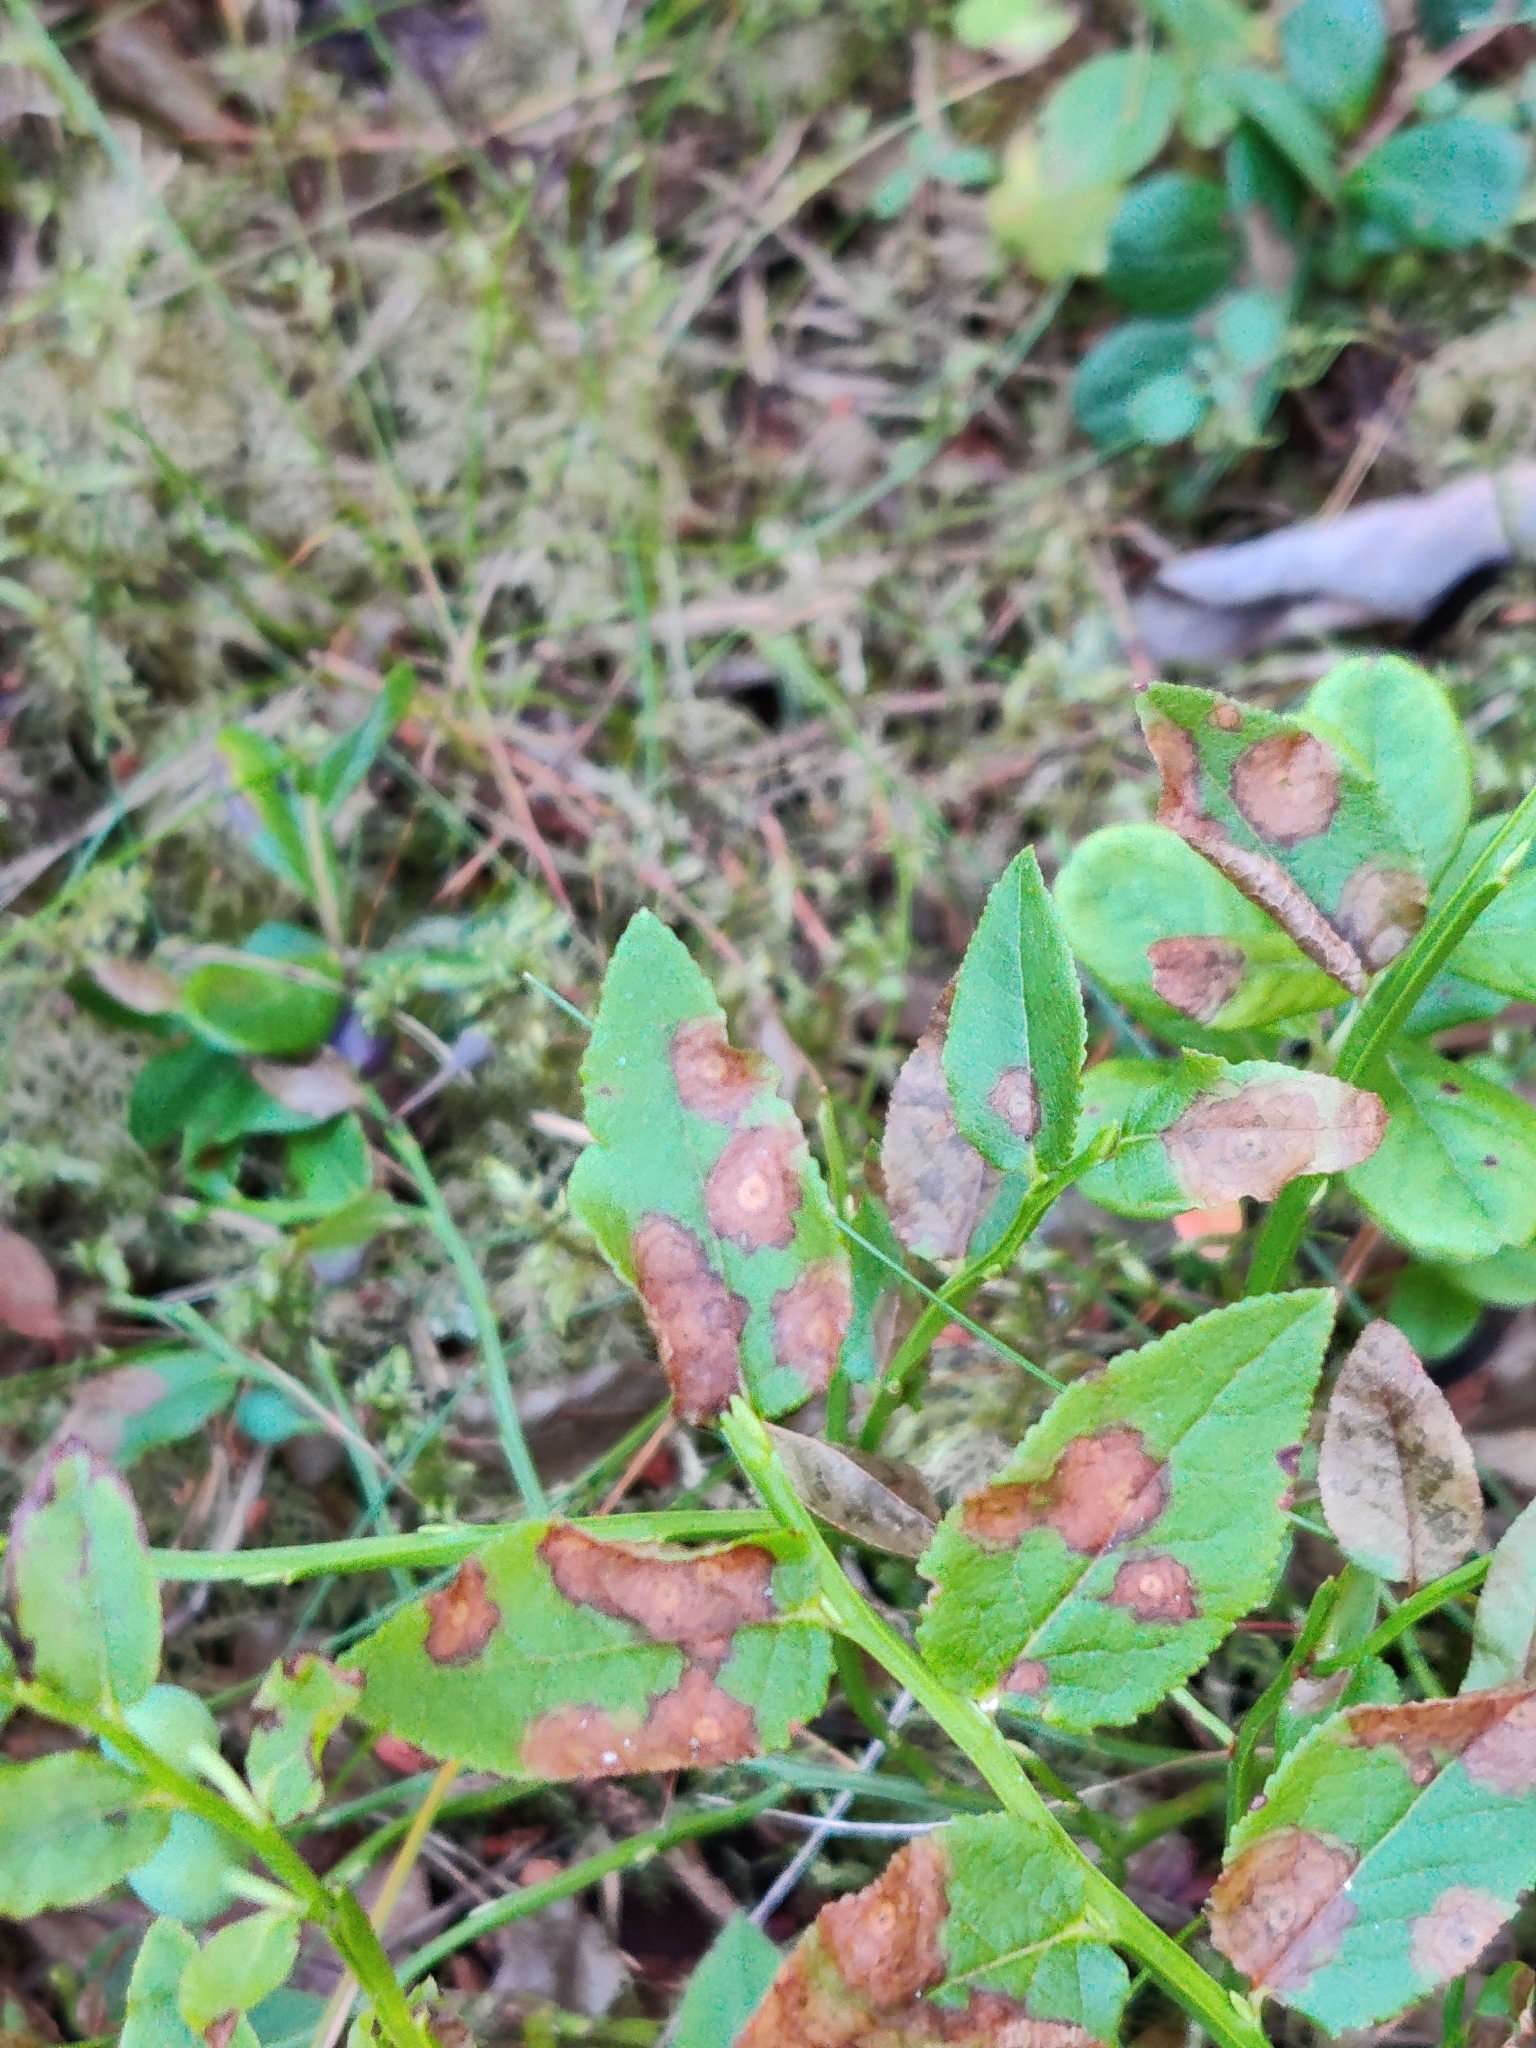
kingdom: Plantae
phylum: Tracheophyta
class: Magnoliopsida
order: Ericales
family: Ericaceae
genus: Vaccinium
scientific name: Vaccinium myrtillus
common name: Bilberry
